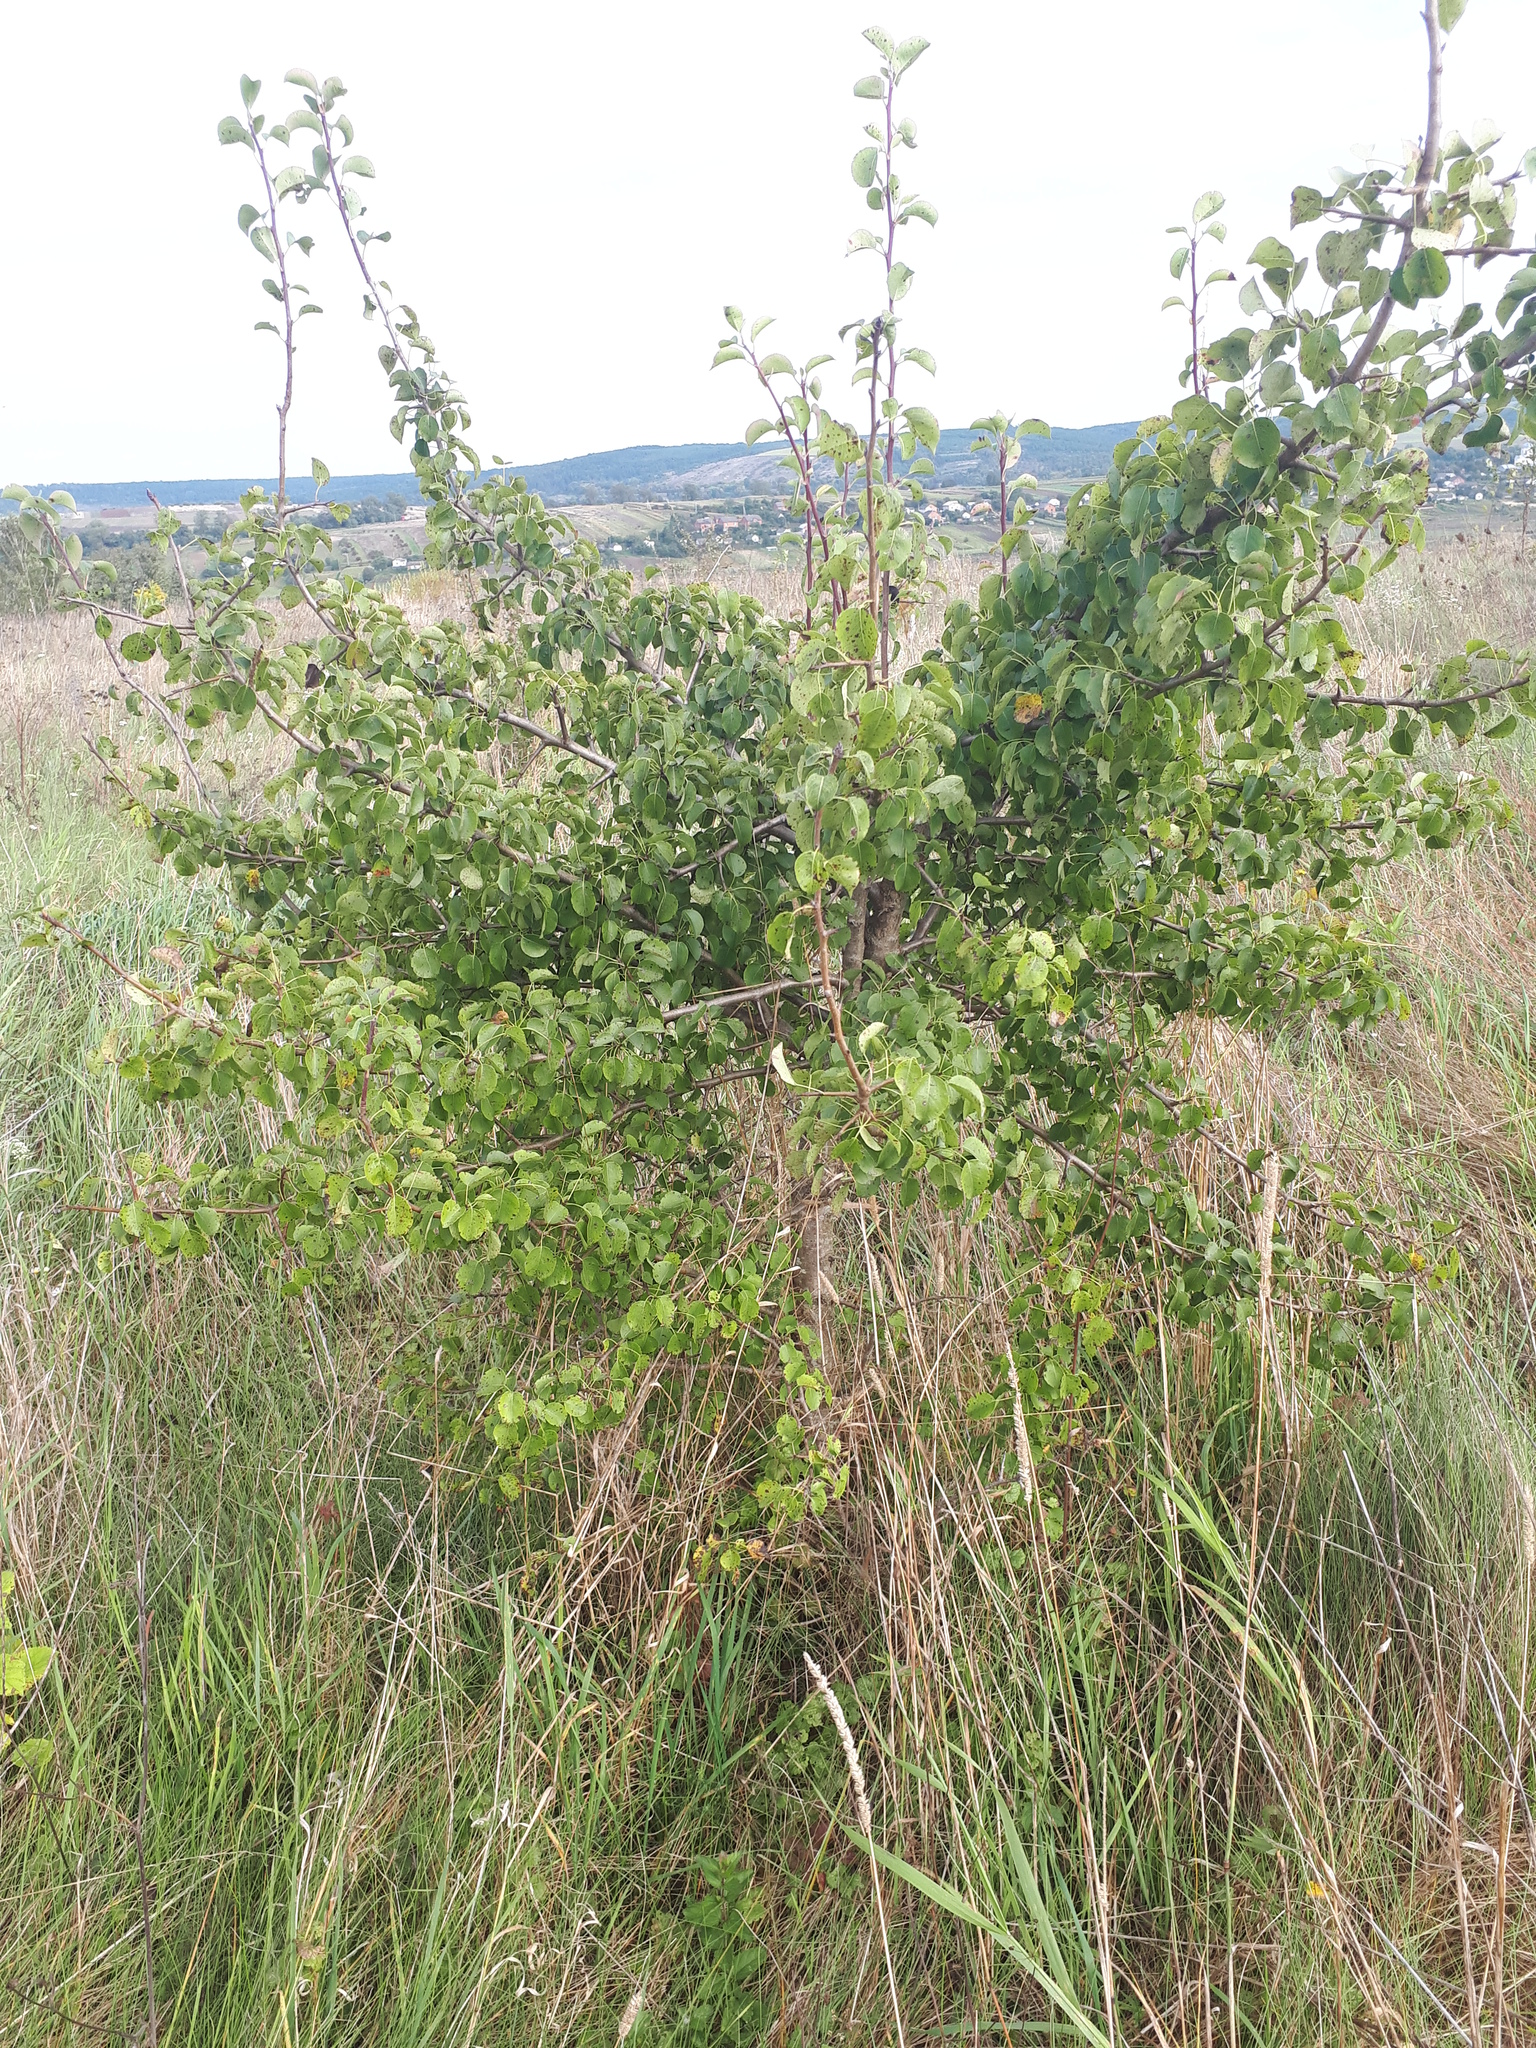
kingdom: Plantae
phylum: Tracheophyta
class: Magnoliopsida
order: Rosales
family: Rosaceae
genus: Pyrus
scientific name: Pyrus
